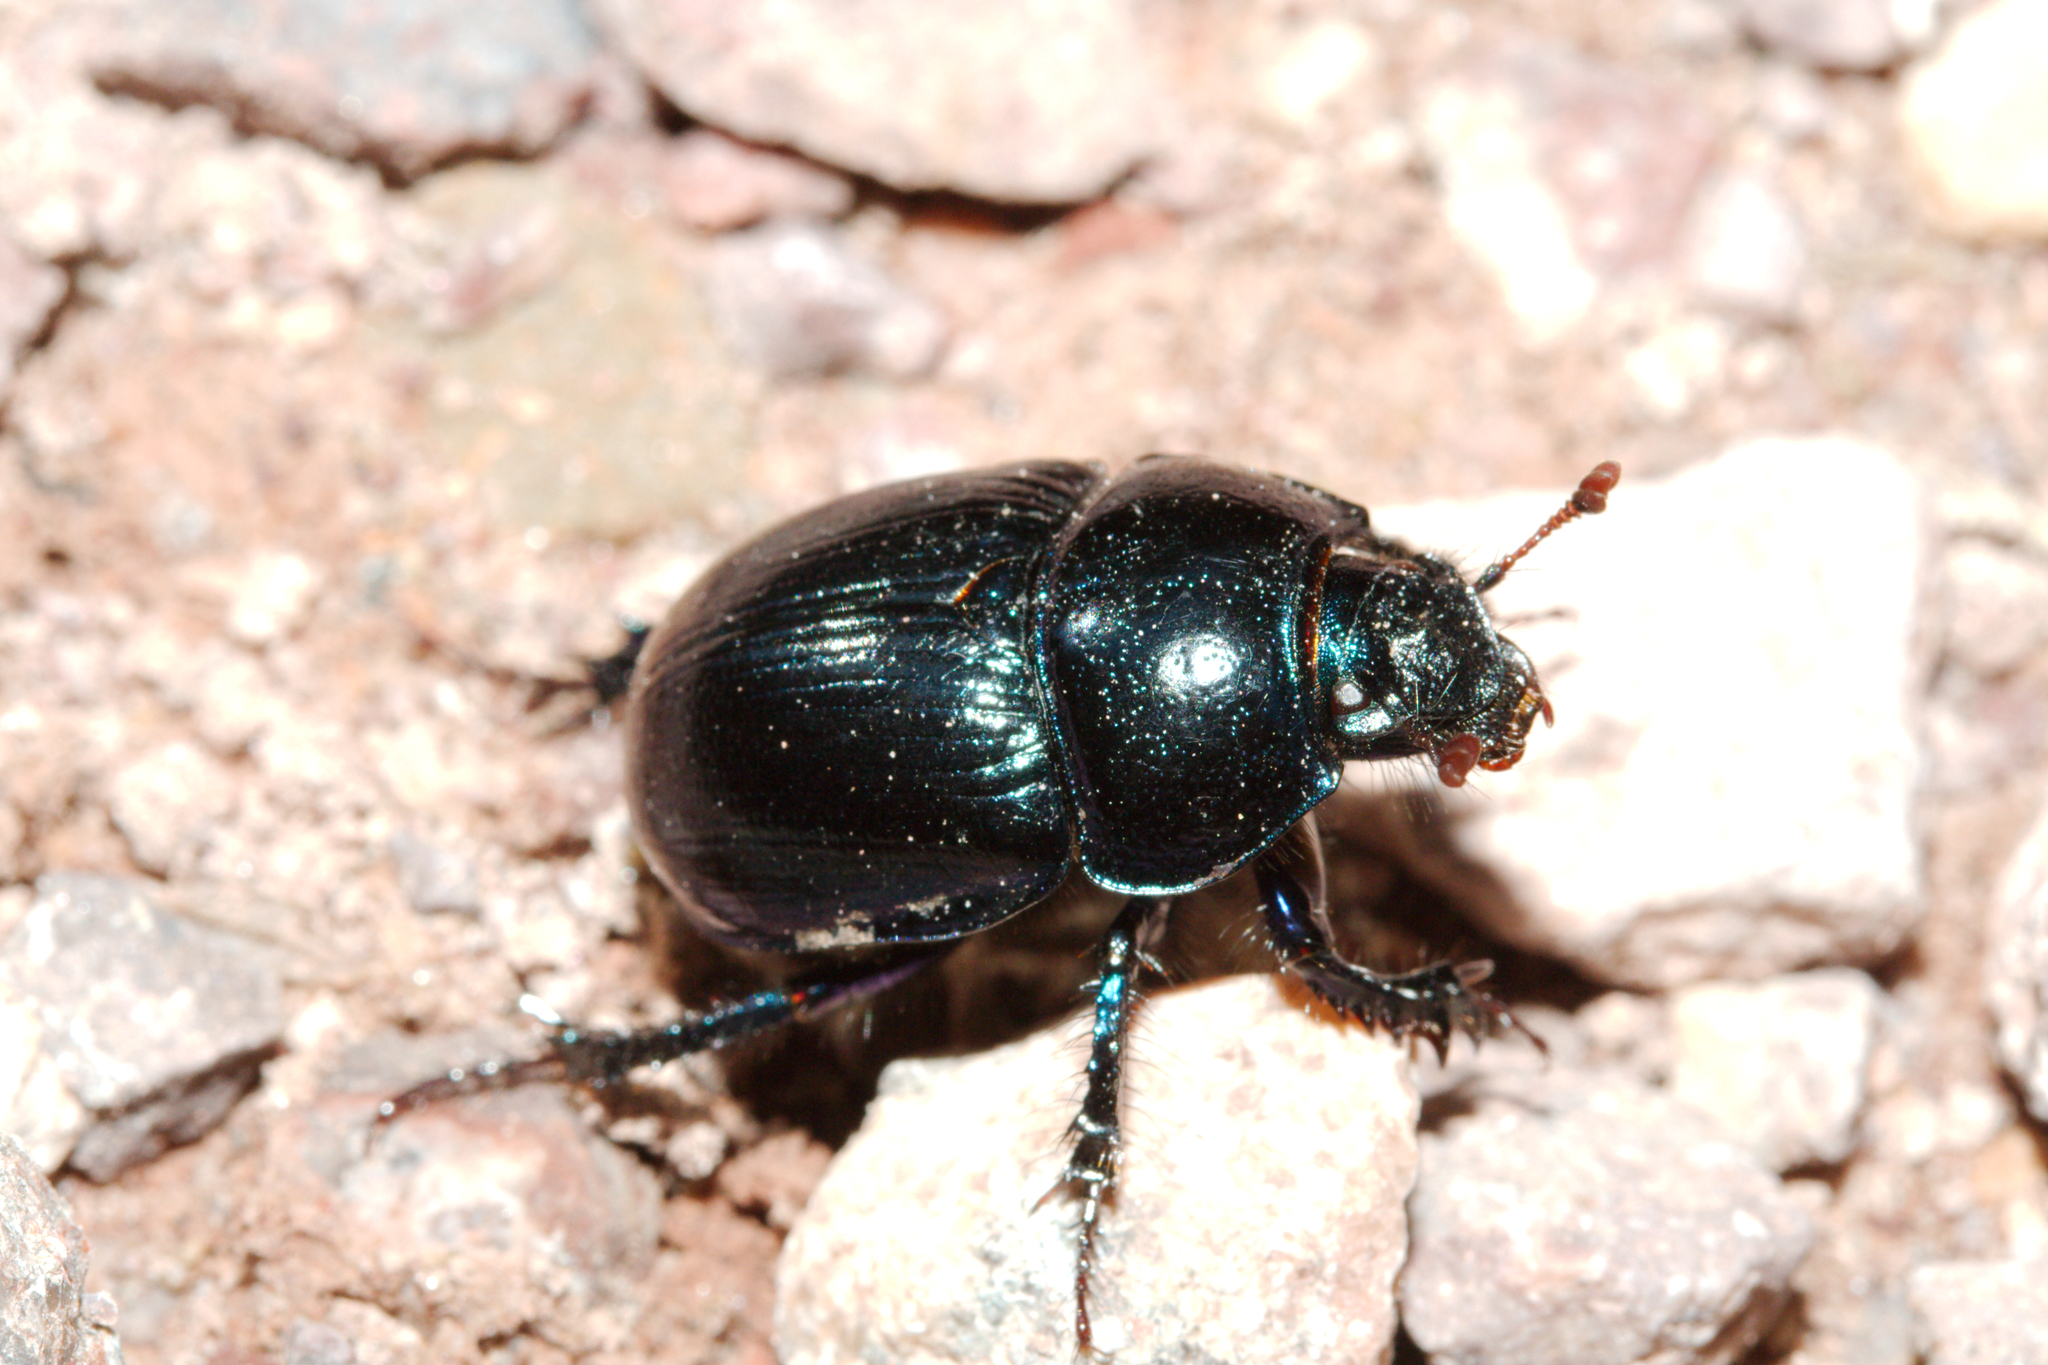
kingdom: Animalia
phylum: Arthropoda
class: Insecta
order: Coleoptera
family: Geotrupidae
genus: Anoplotrupes
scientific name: Anoplotrupes stercorosus
